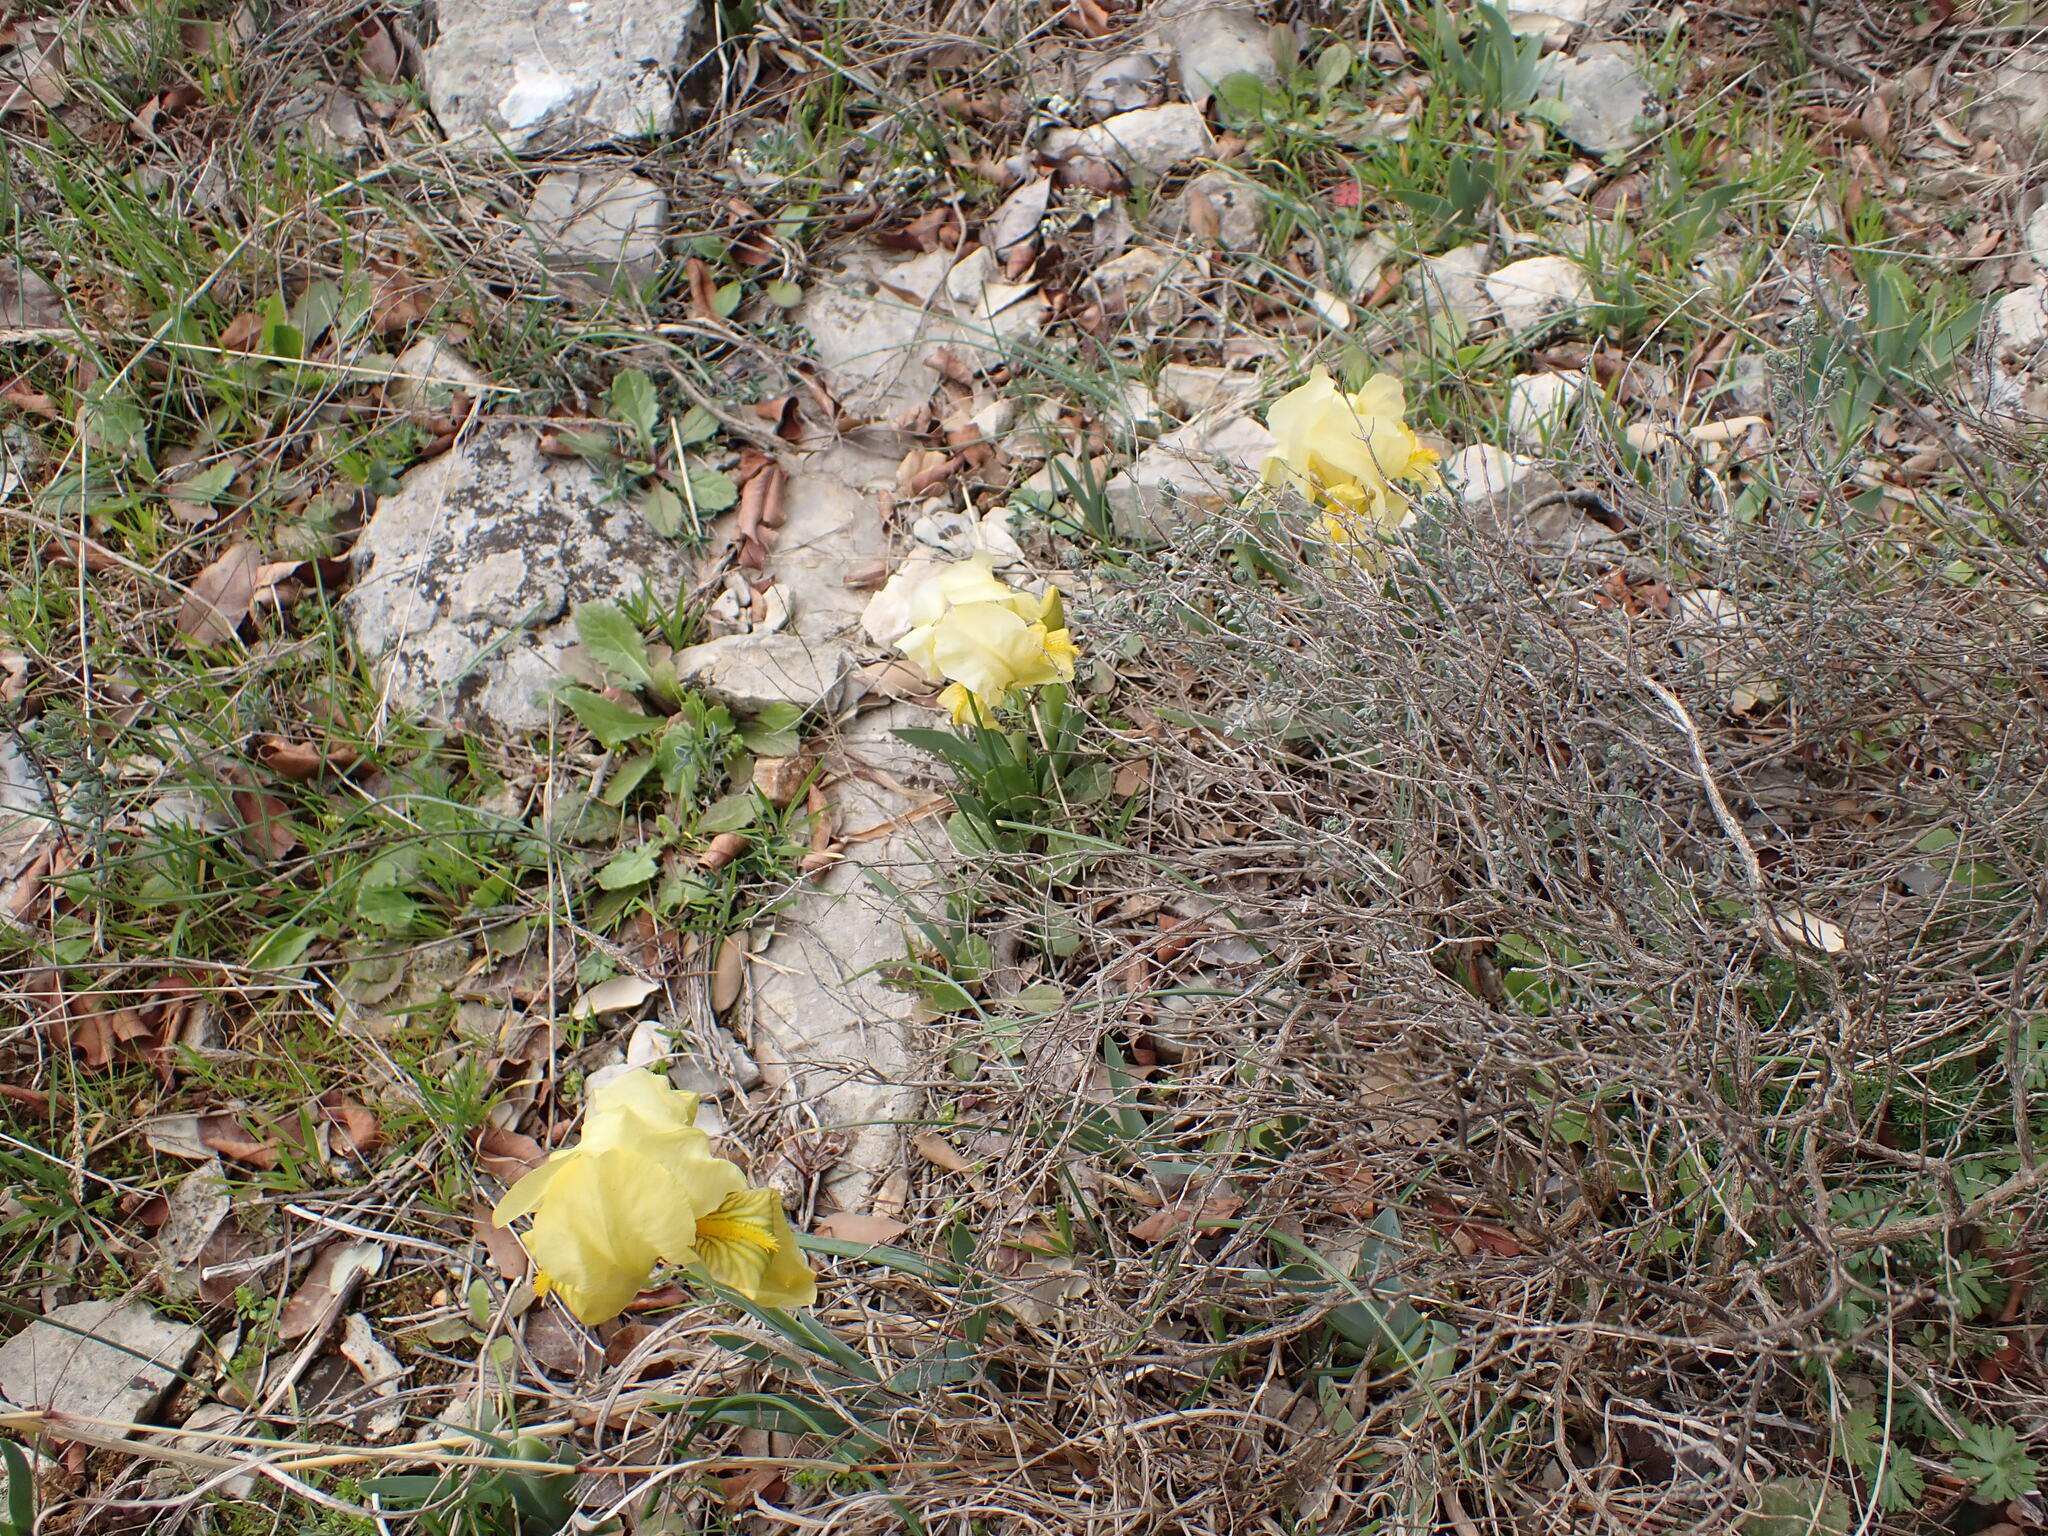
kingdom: Plantae
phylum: Tracheophyta
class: Liliopsida
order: Asparagales
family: Iridaceae
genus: Iris
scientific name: Iris lutescens
